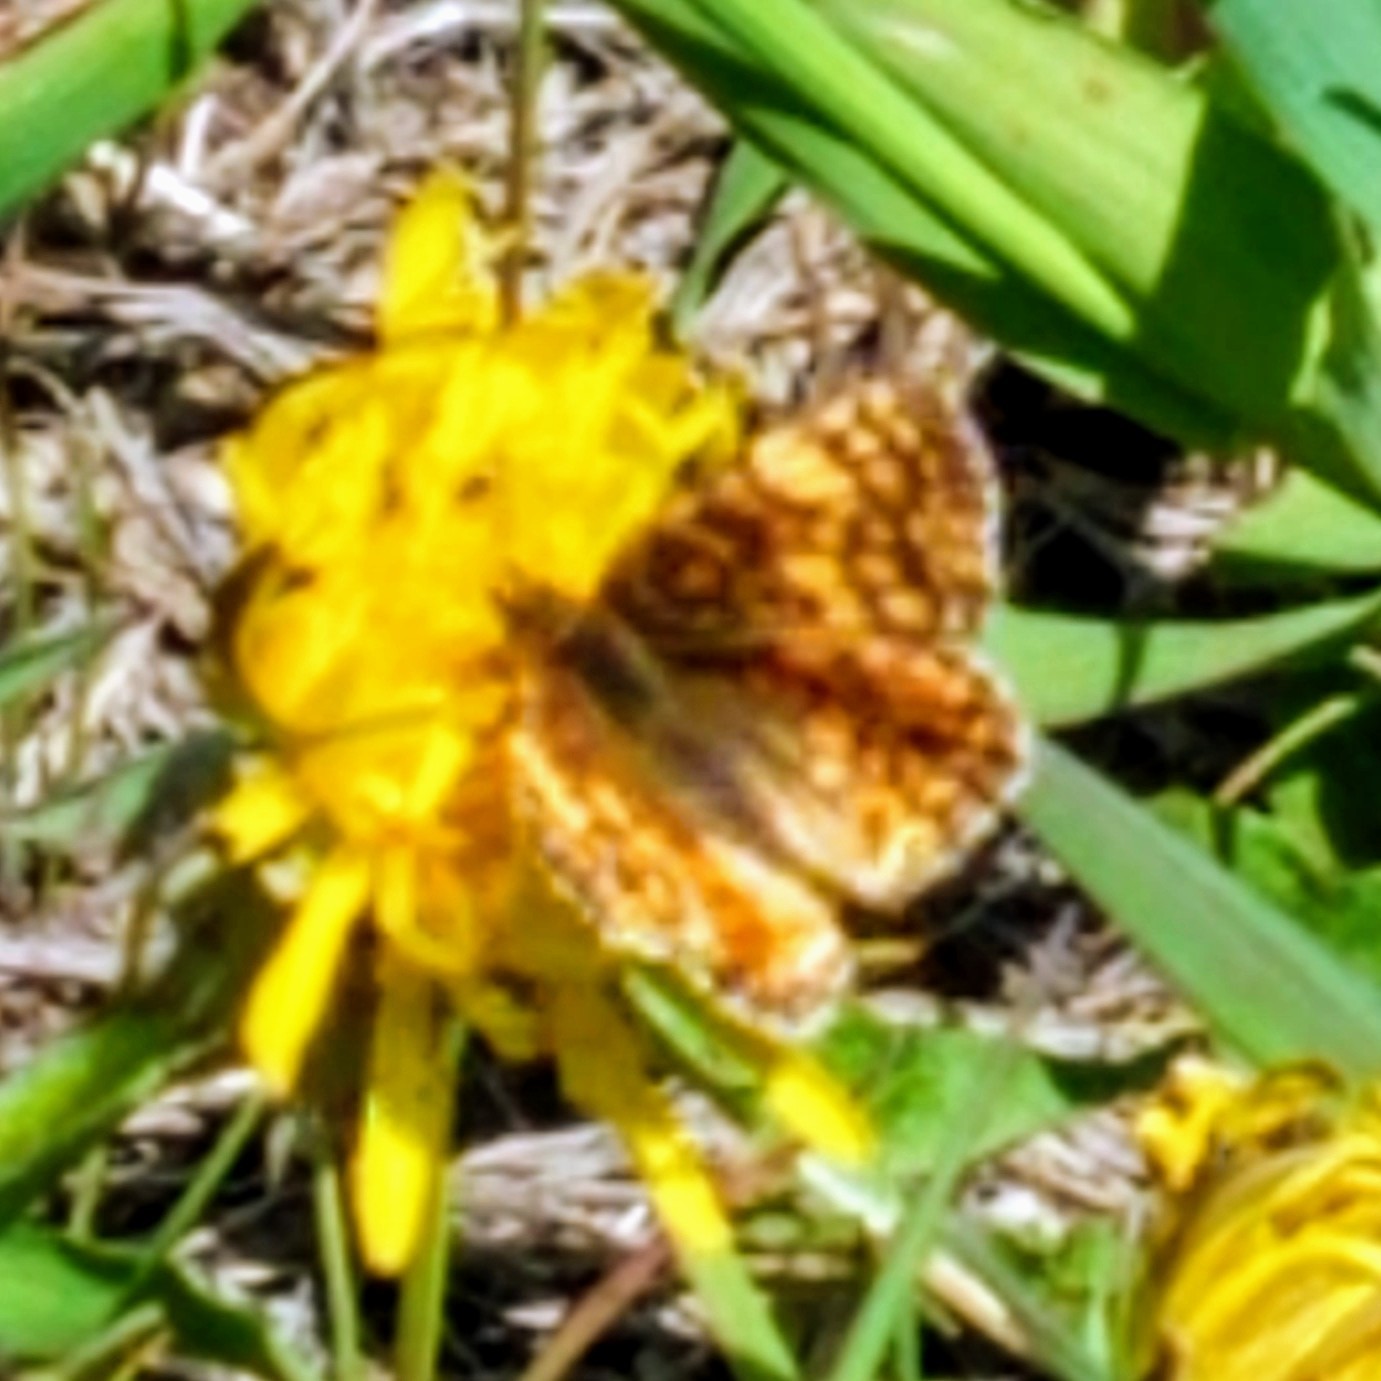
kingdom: Animalia
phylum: Arthropoda
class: Insecta
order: Lepidoptera
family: Nymphalidae
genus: Eresia
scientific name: Eresia aveyrona
